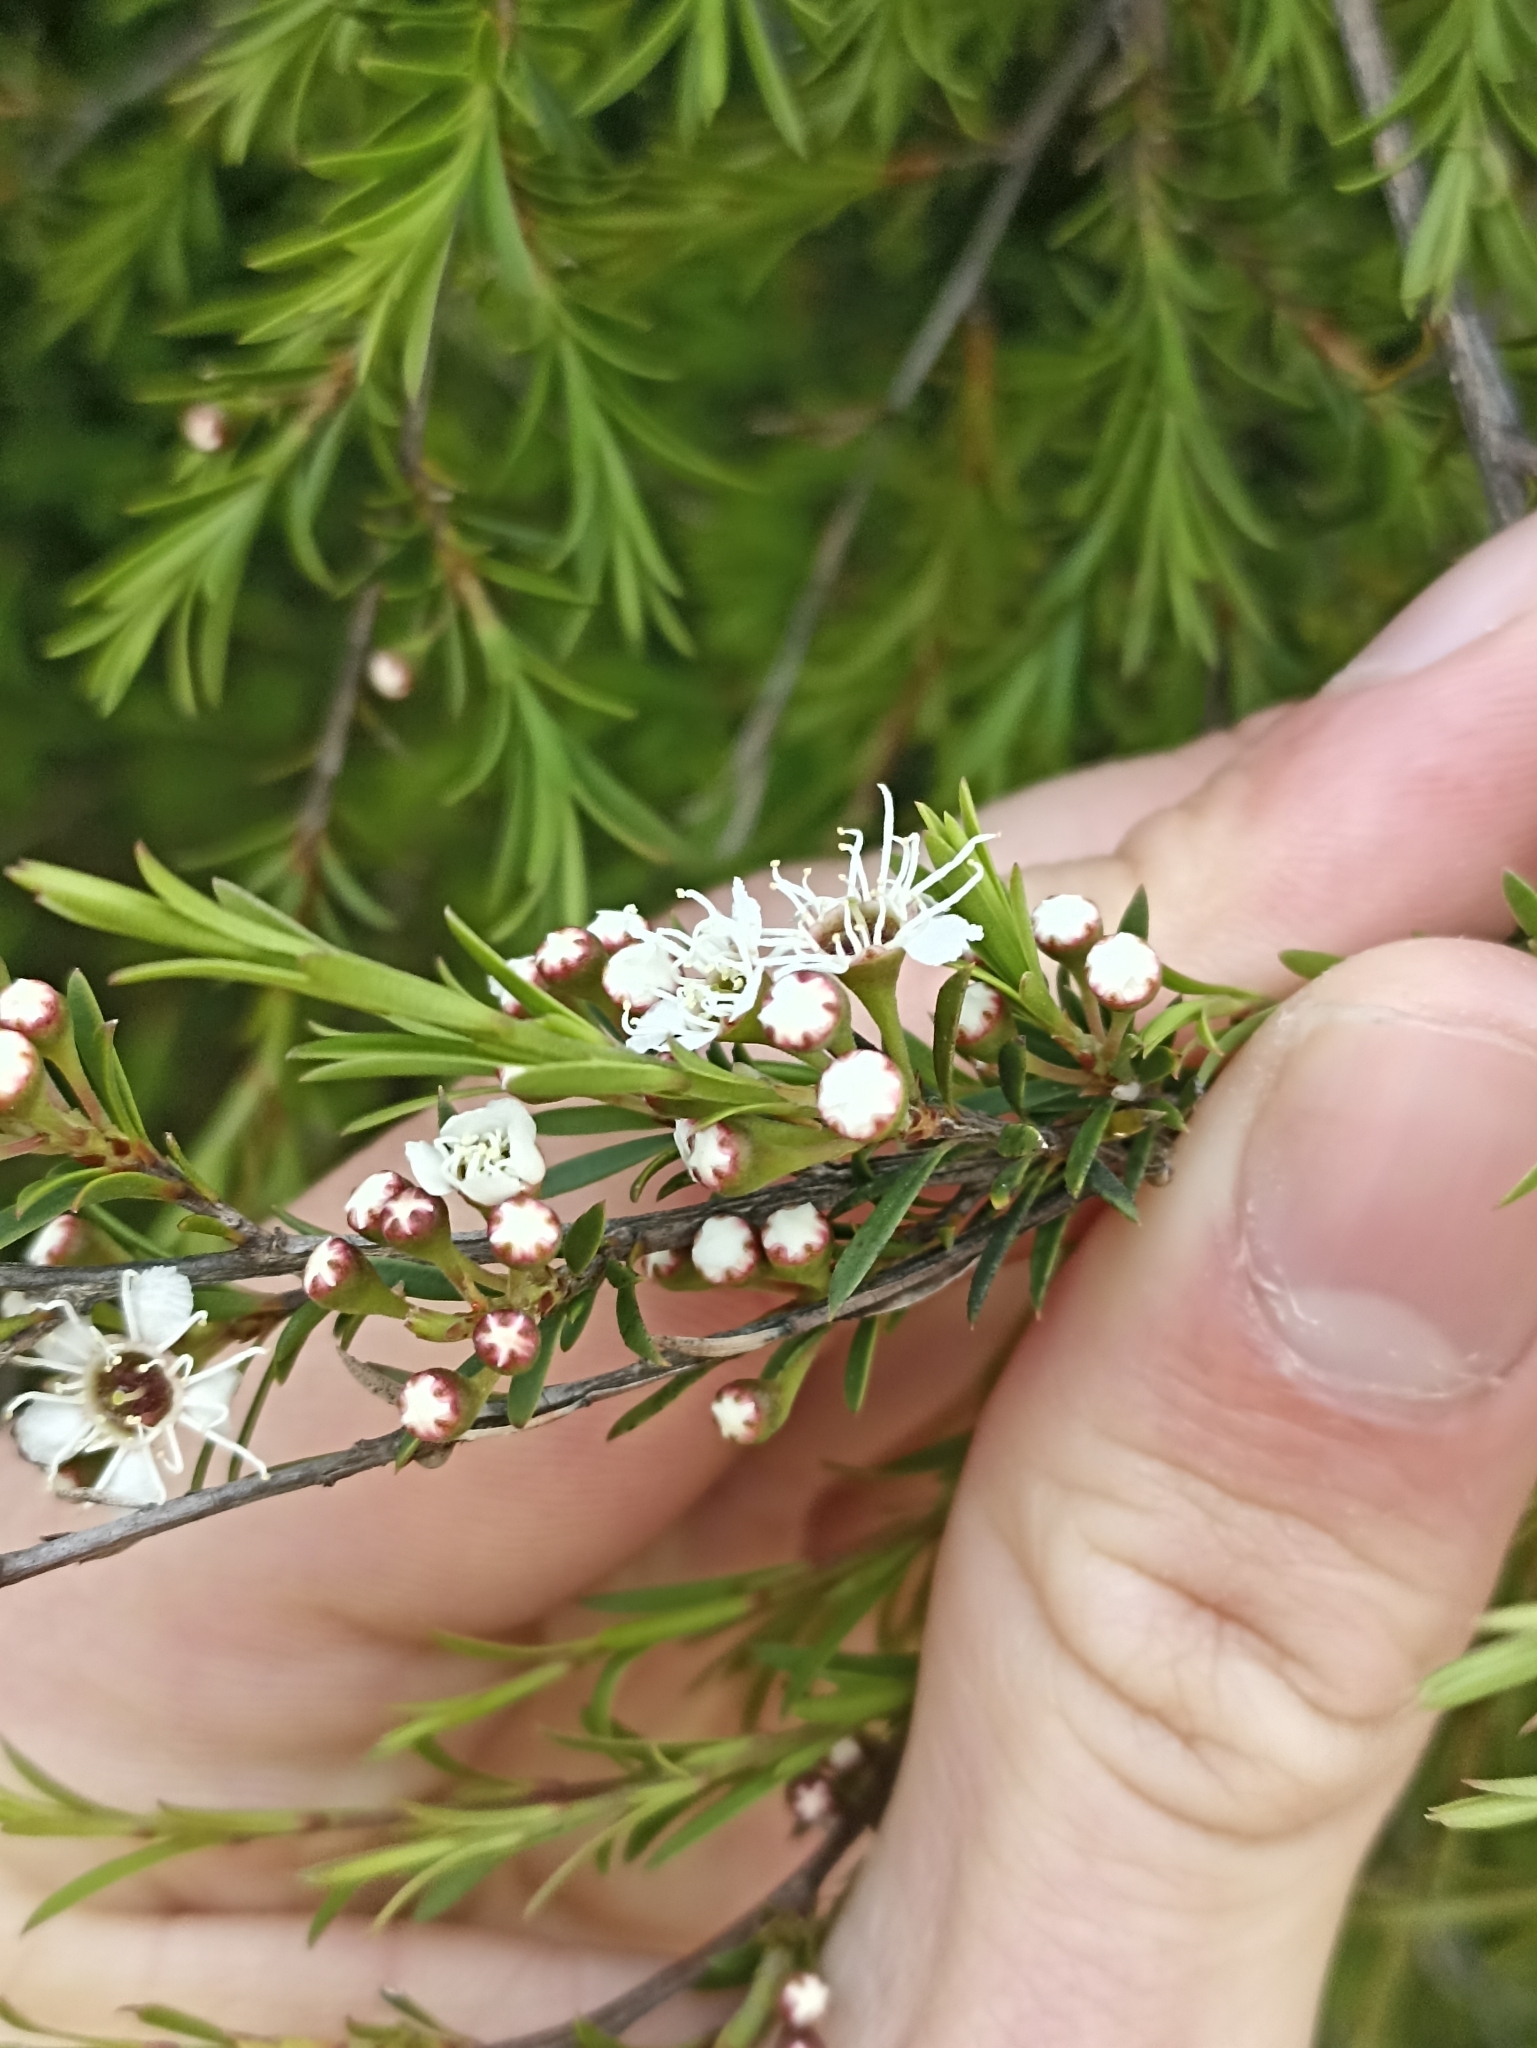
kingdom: Plantae
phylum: Tracheophyta
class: Magnoliopsida
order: Myrtales
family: Myrtaceae
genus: Kunzea
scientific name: Kunzea ericoides
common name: Burgan
